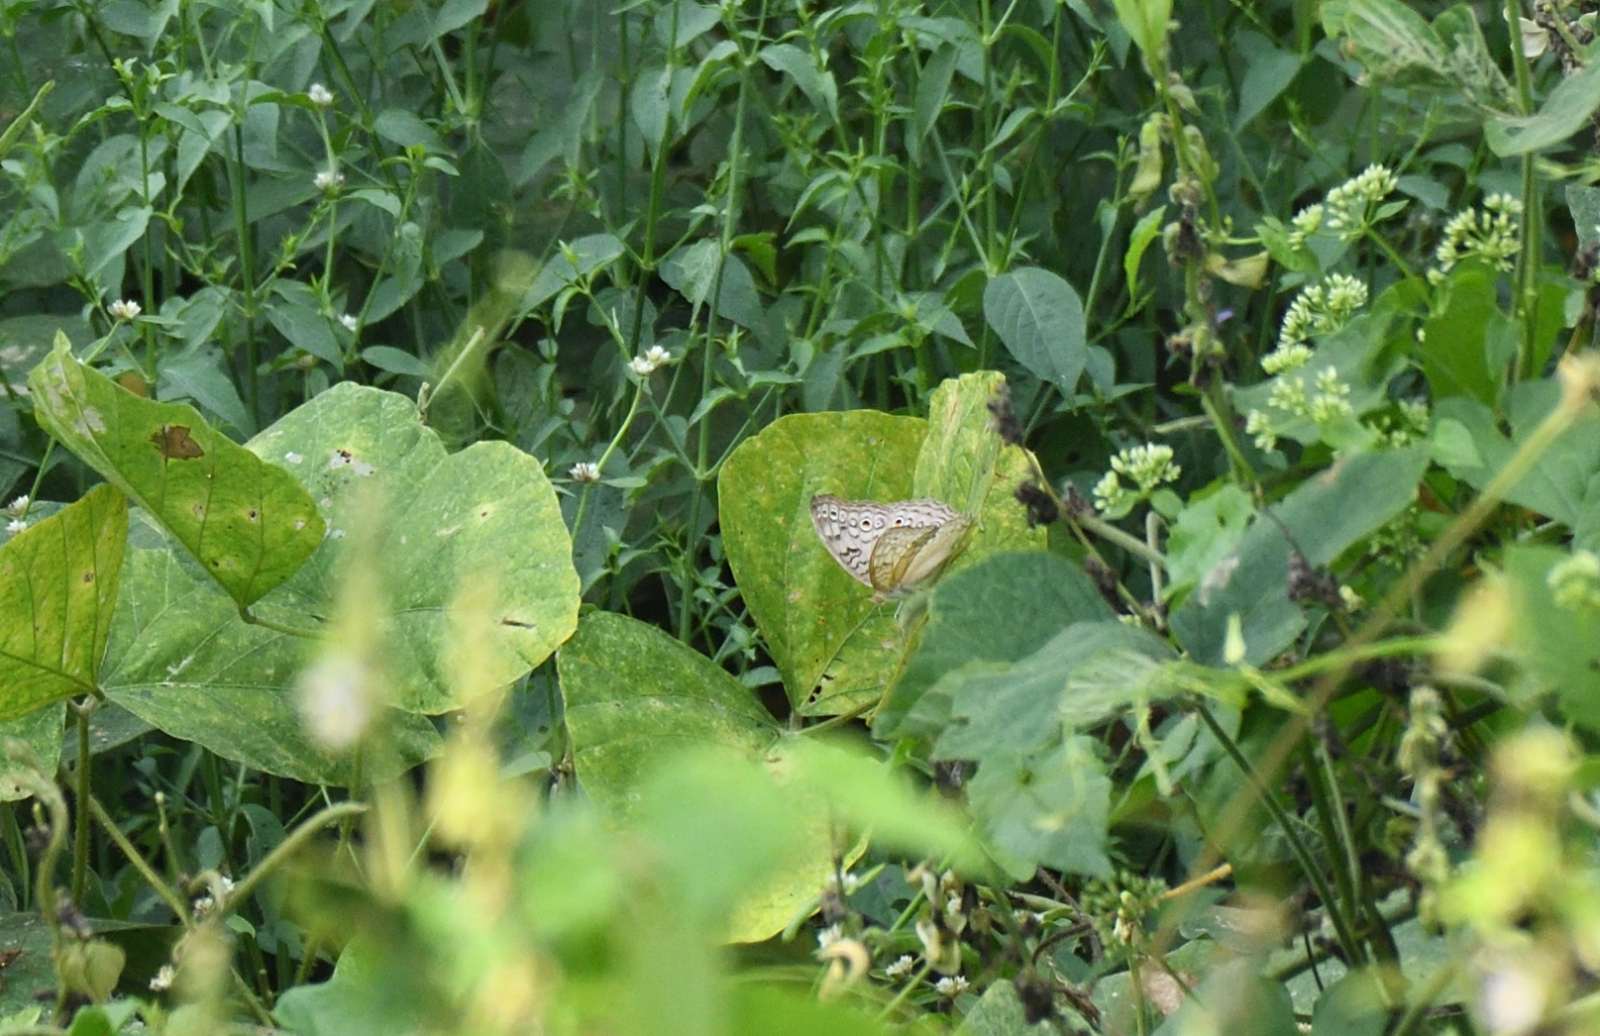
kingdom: Animalia
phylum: Arthropoda
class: Insecta
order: Lepidoptera
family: Nymphalidae
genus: Junonia
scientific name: Junonia atlites
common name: Grey pansy
